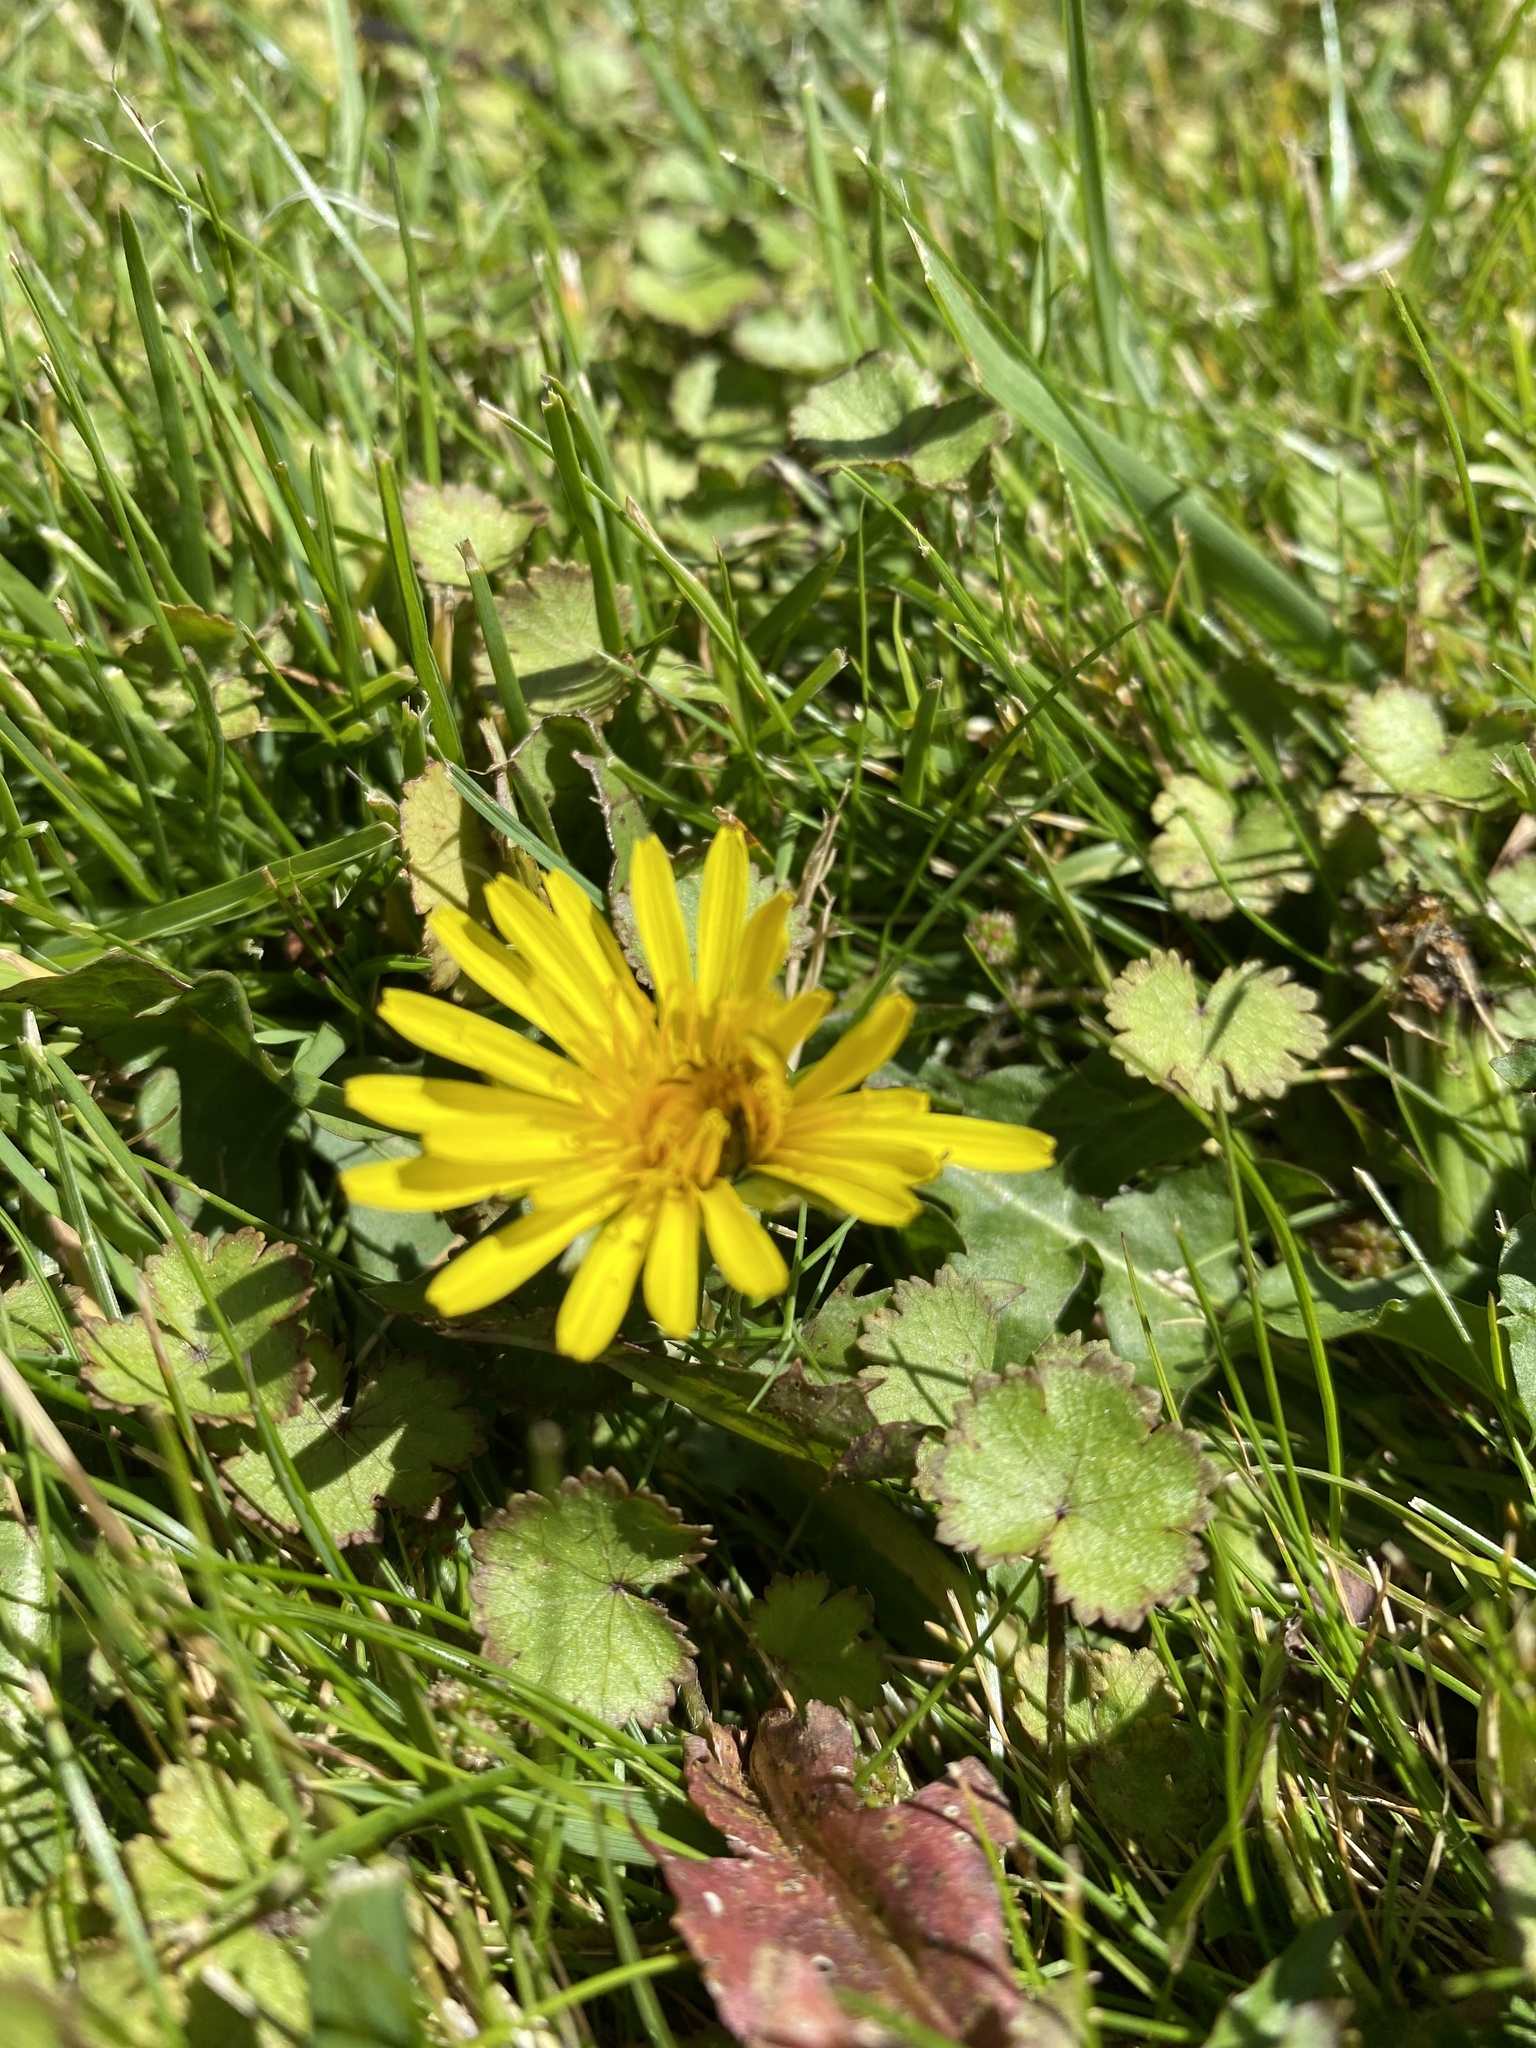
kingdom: Plantae
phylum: Tracheophyta
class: Magnoliopsida
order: Asterales
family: Asteraceae
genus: Taraxacum
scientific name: Taraxacum officinale
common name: Common dandelion
